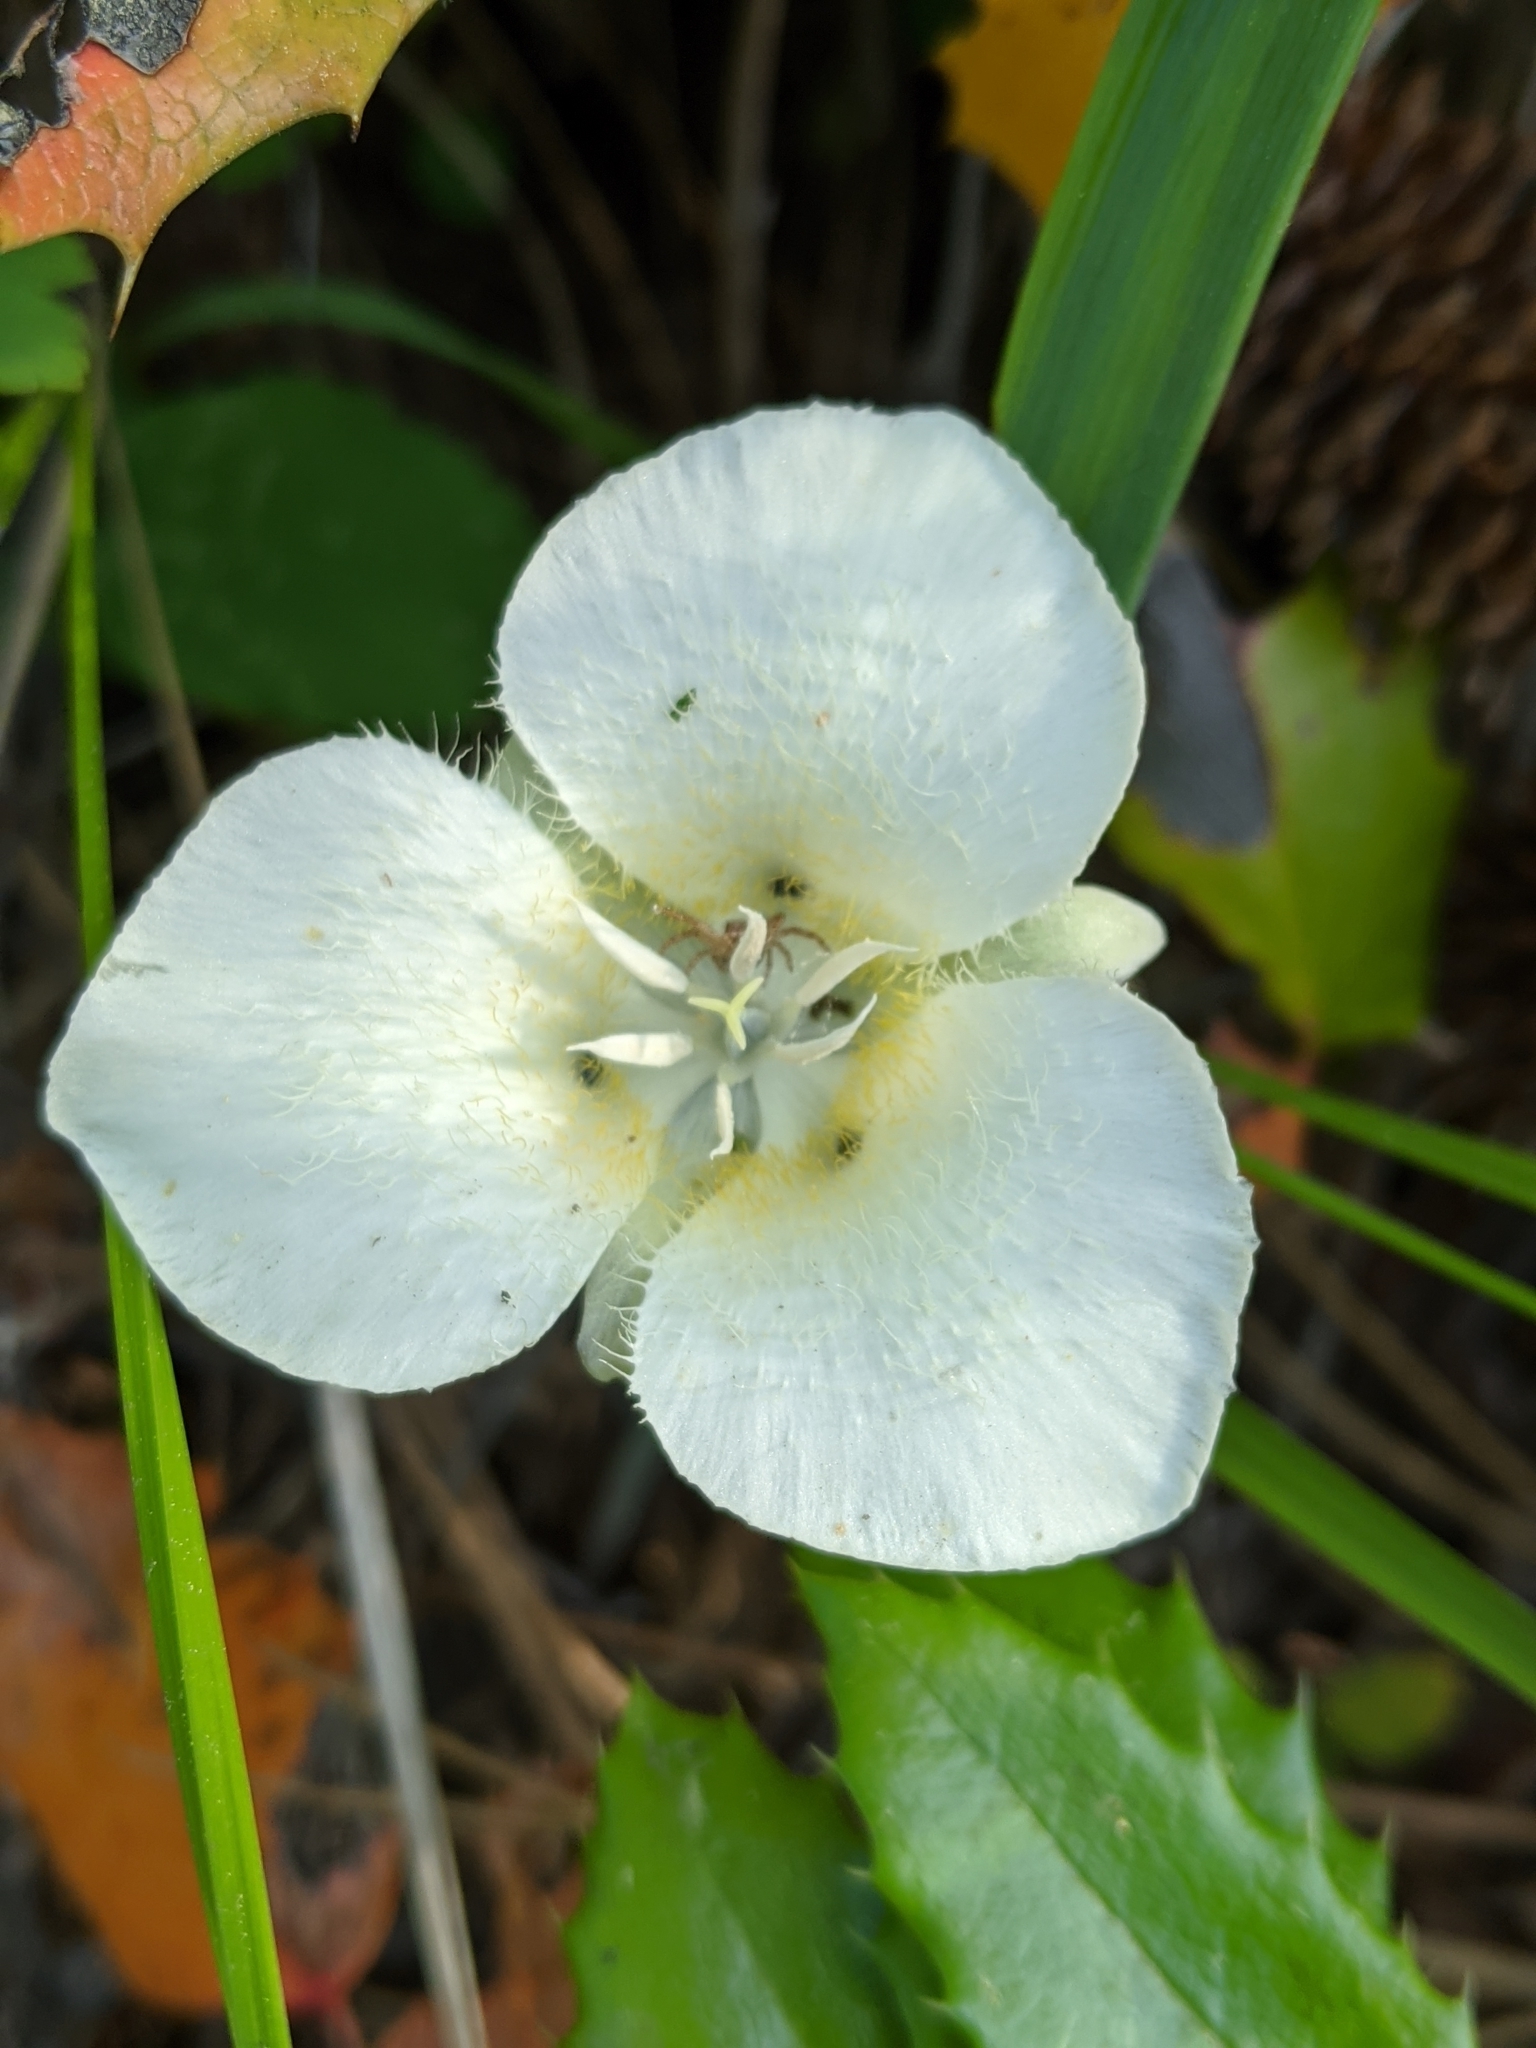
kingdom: Plantae
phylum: Tracheophyta
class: Liliopsida
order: Liliales
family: Liliaceae
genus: Calochortus
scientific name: Calochortus apiculatus
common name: Baker's mariposa lily
